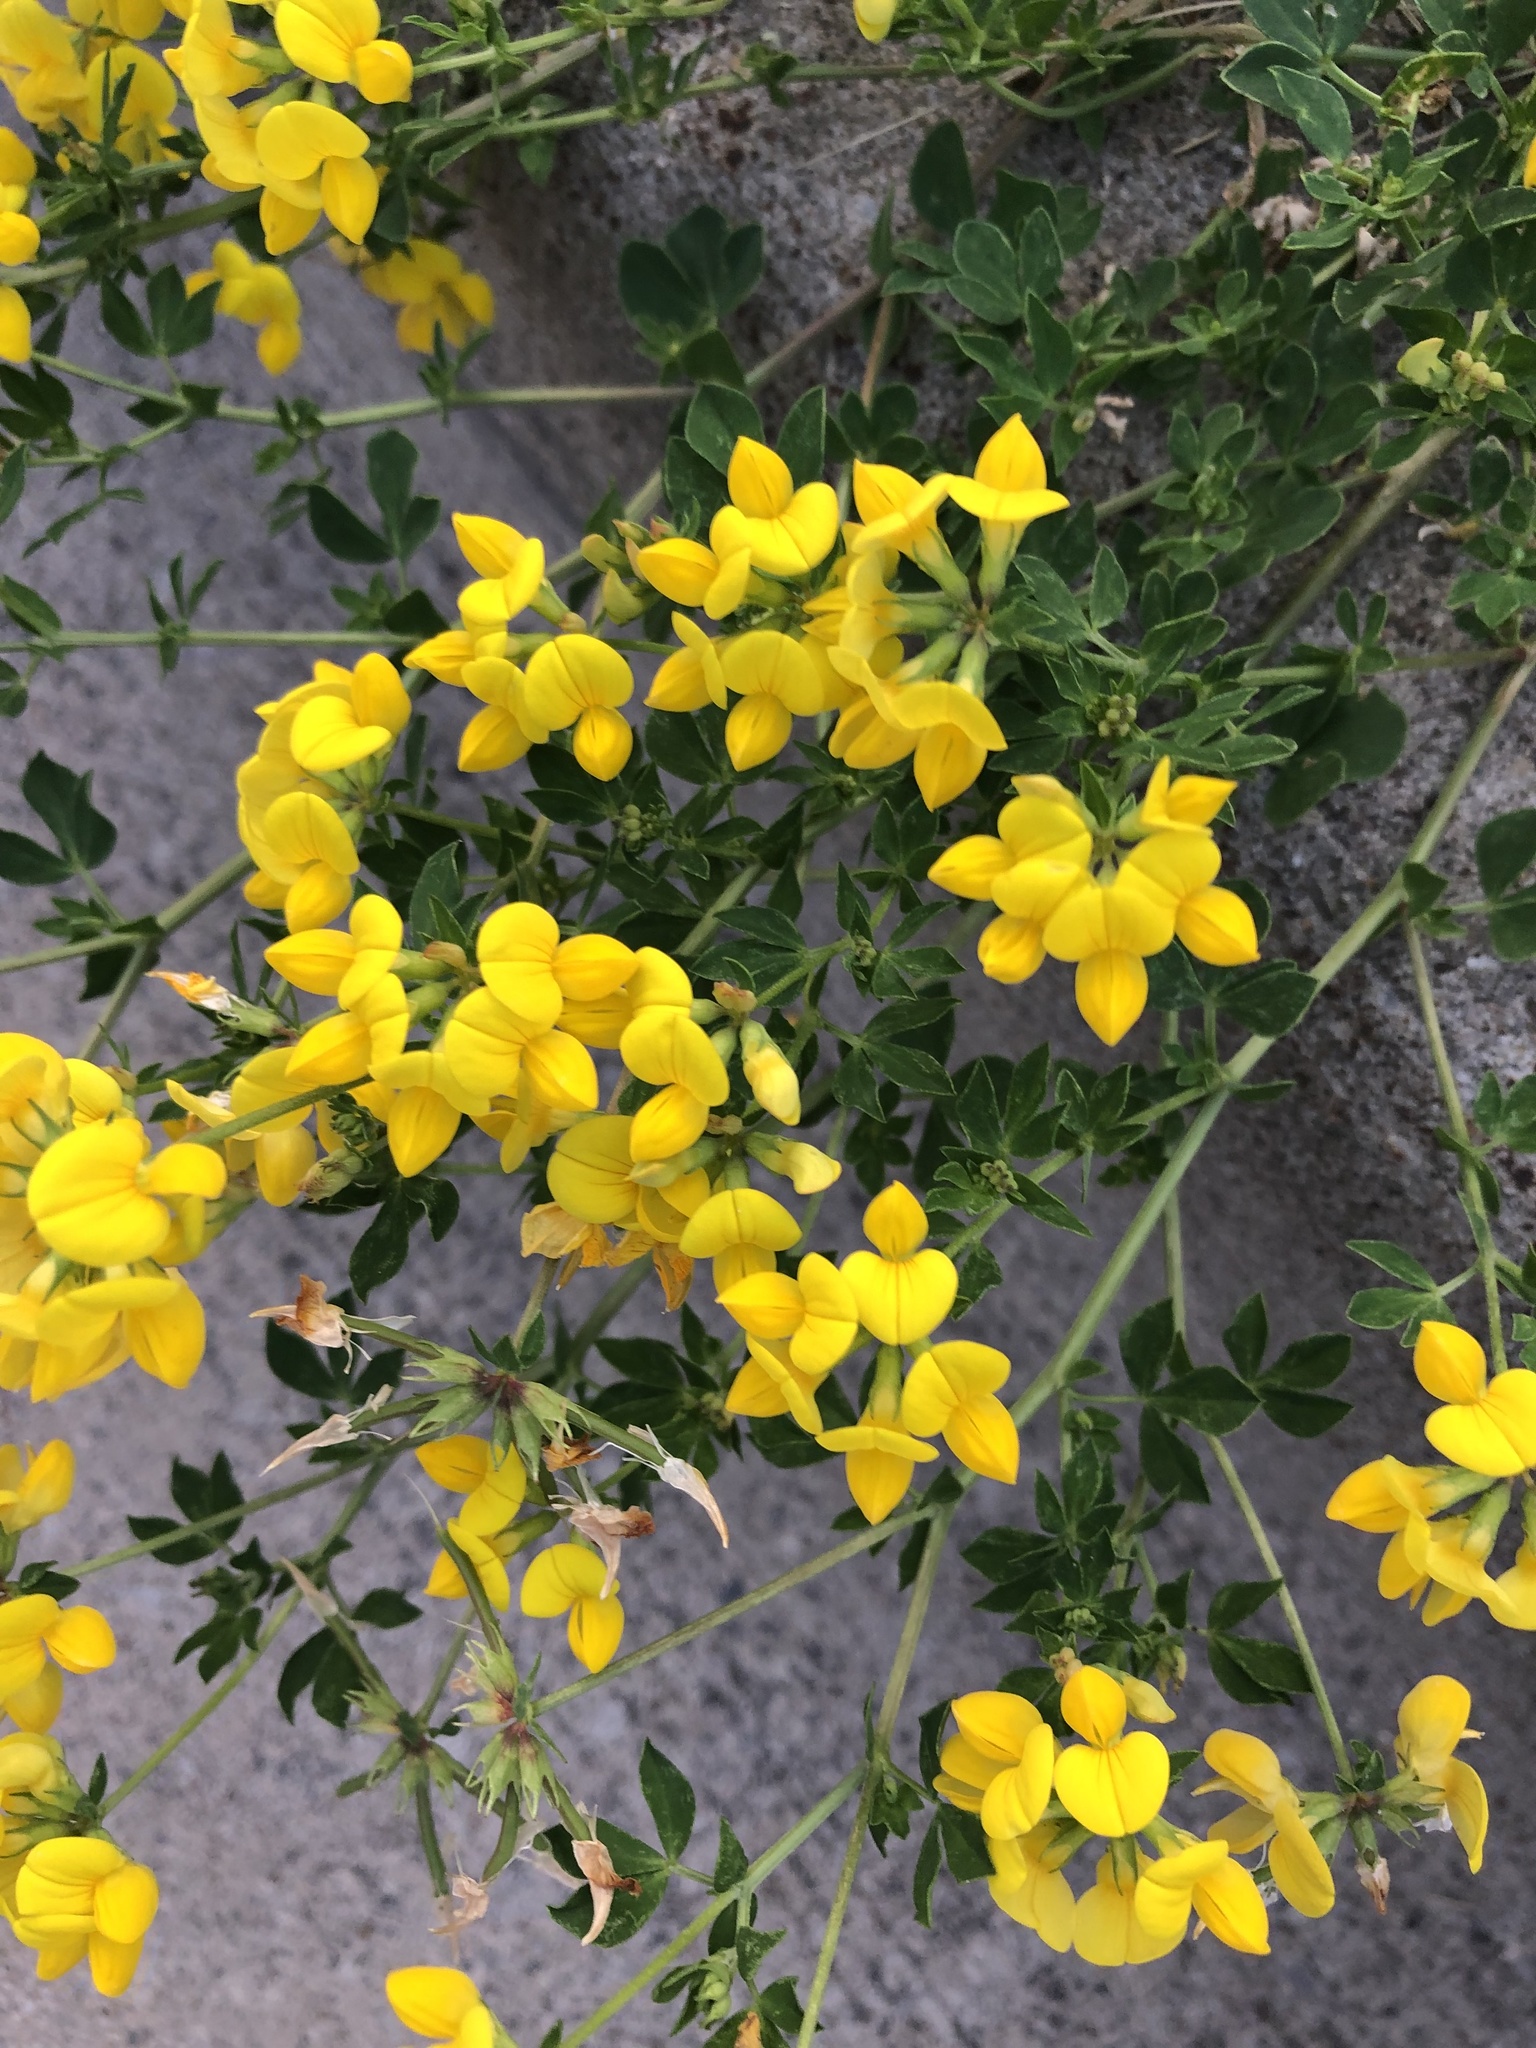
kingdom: Plantae
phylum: Tracheophyta
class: Magnoliopsida
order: Fabales
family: Fabaceae
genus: Lotus
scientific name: Lotus corniculatus
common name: Common bird's-foot-trefoil
